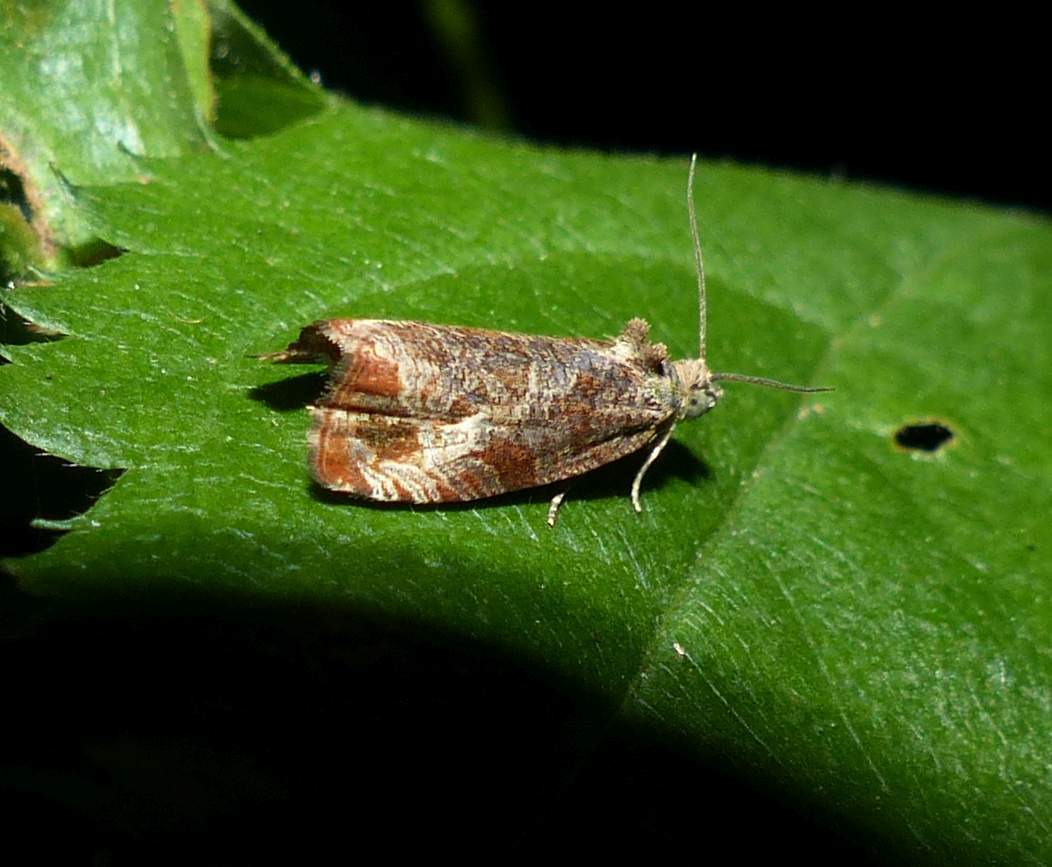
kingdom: Animalia
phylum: Arthropoda
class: Insecta
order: Lepidoptera
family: Tortricidae
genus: Olethreutes
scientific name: Olethreutes merrickanum
